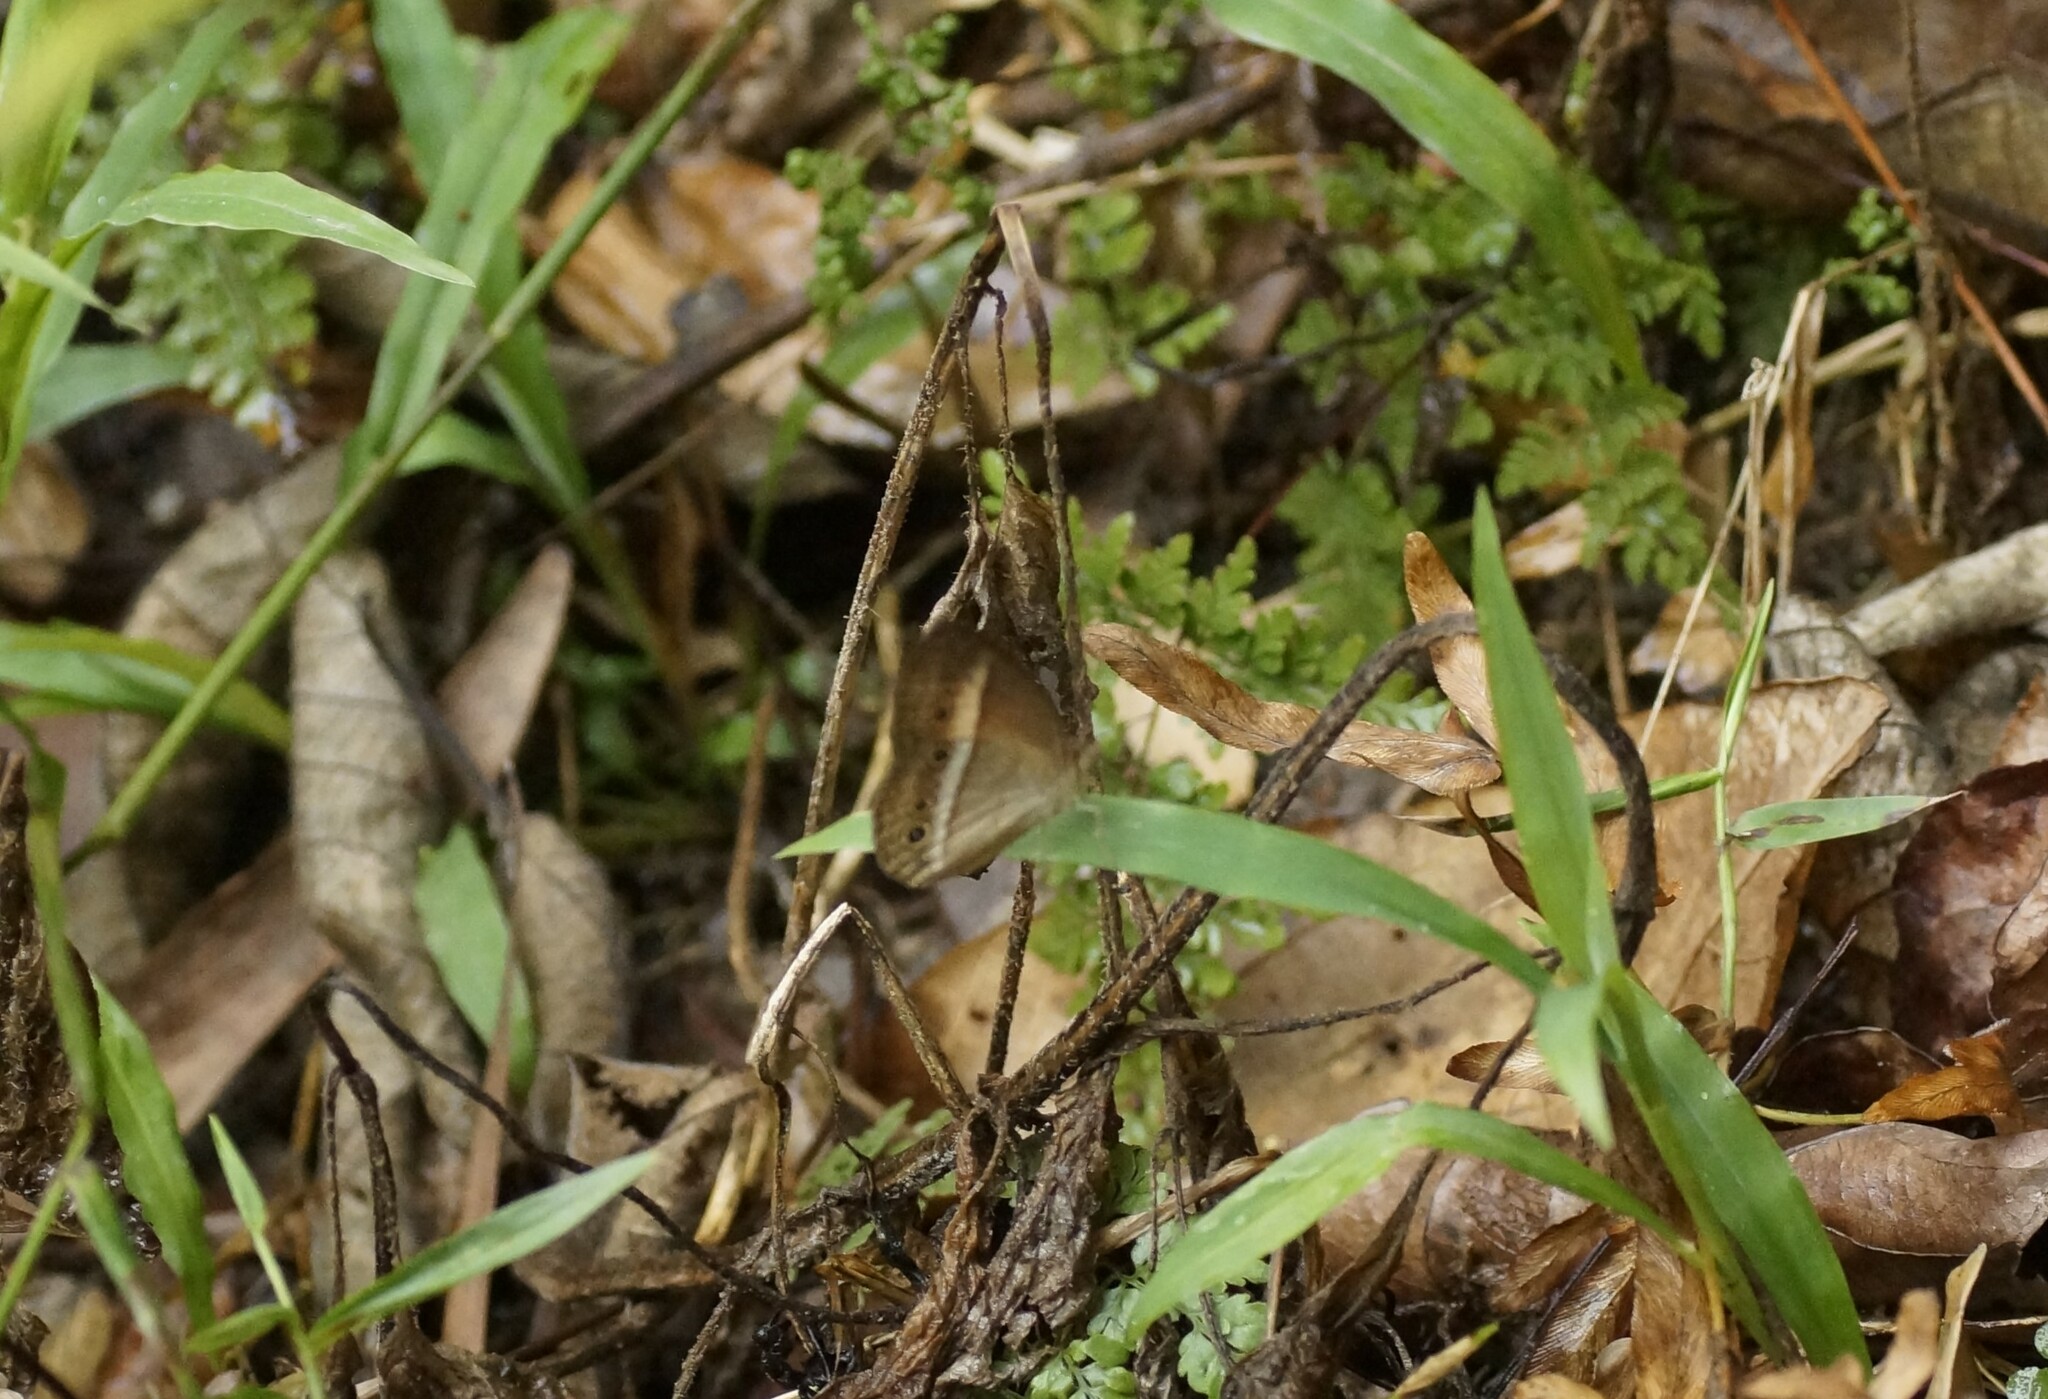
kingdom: Animalia
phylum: Arthropoda
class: Insecta
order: Lepidoptera
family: Nymphalidae
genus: Mycalesis
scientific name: Mycalesis terminus
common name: Orange bushbrown
